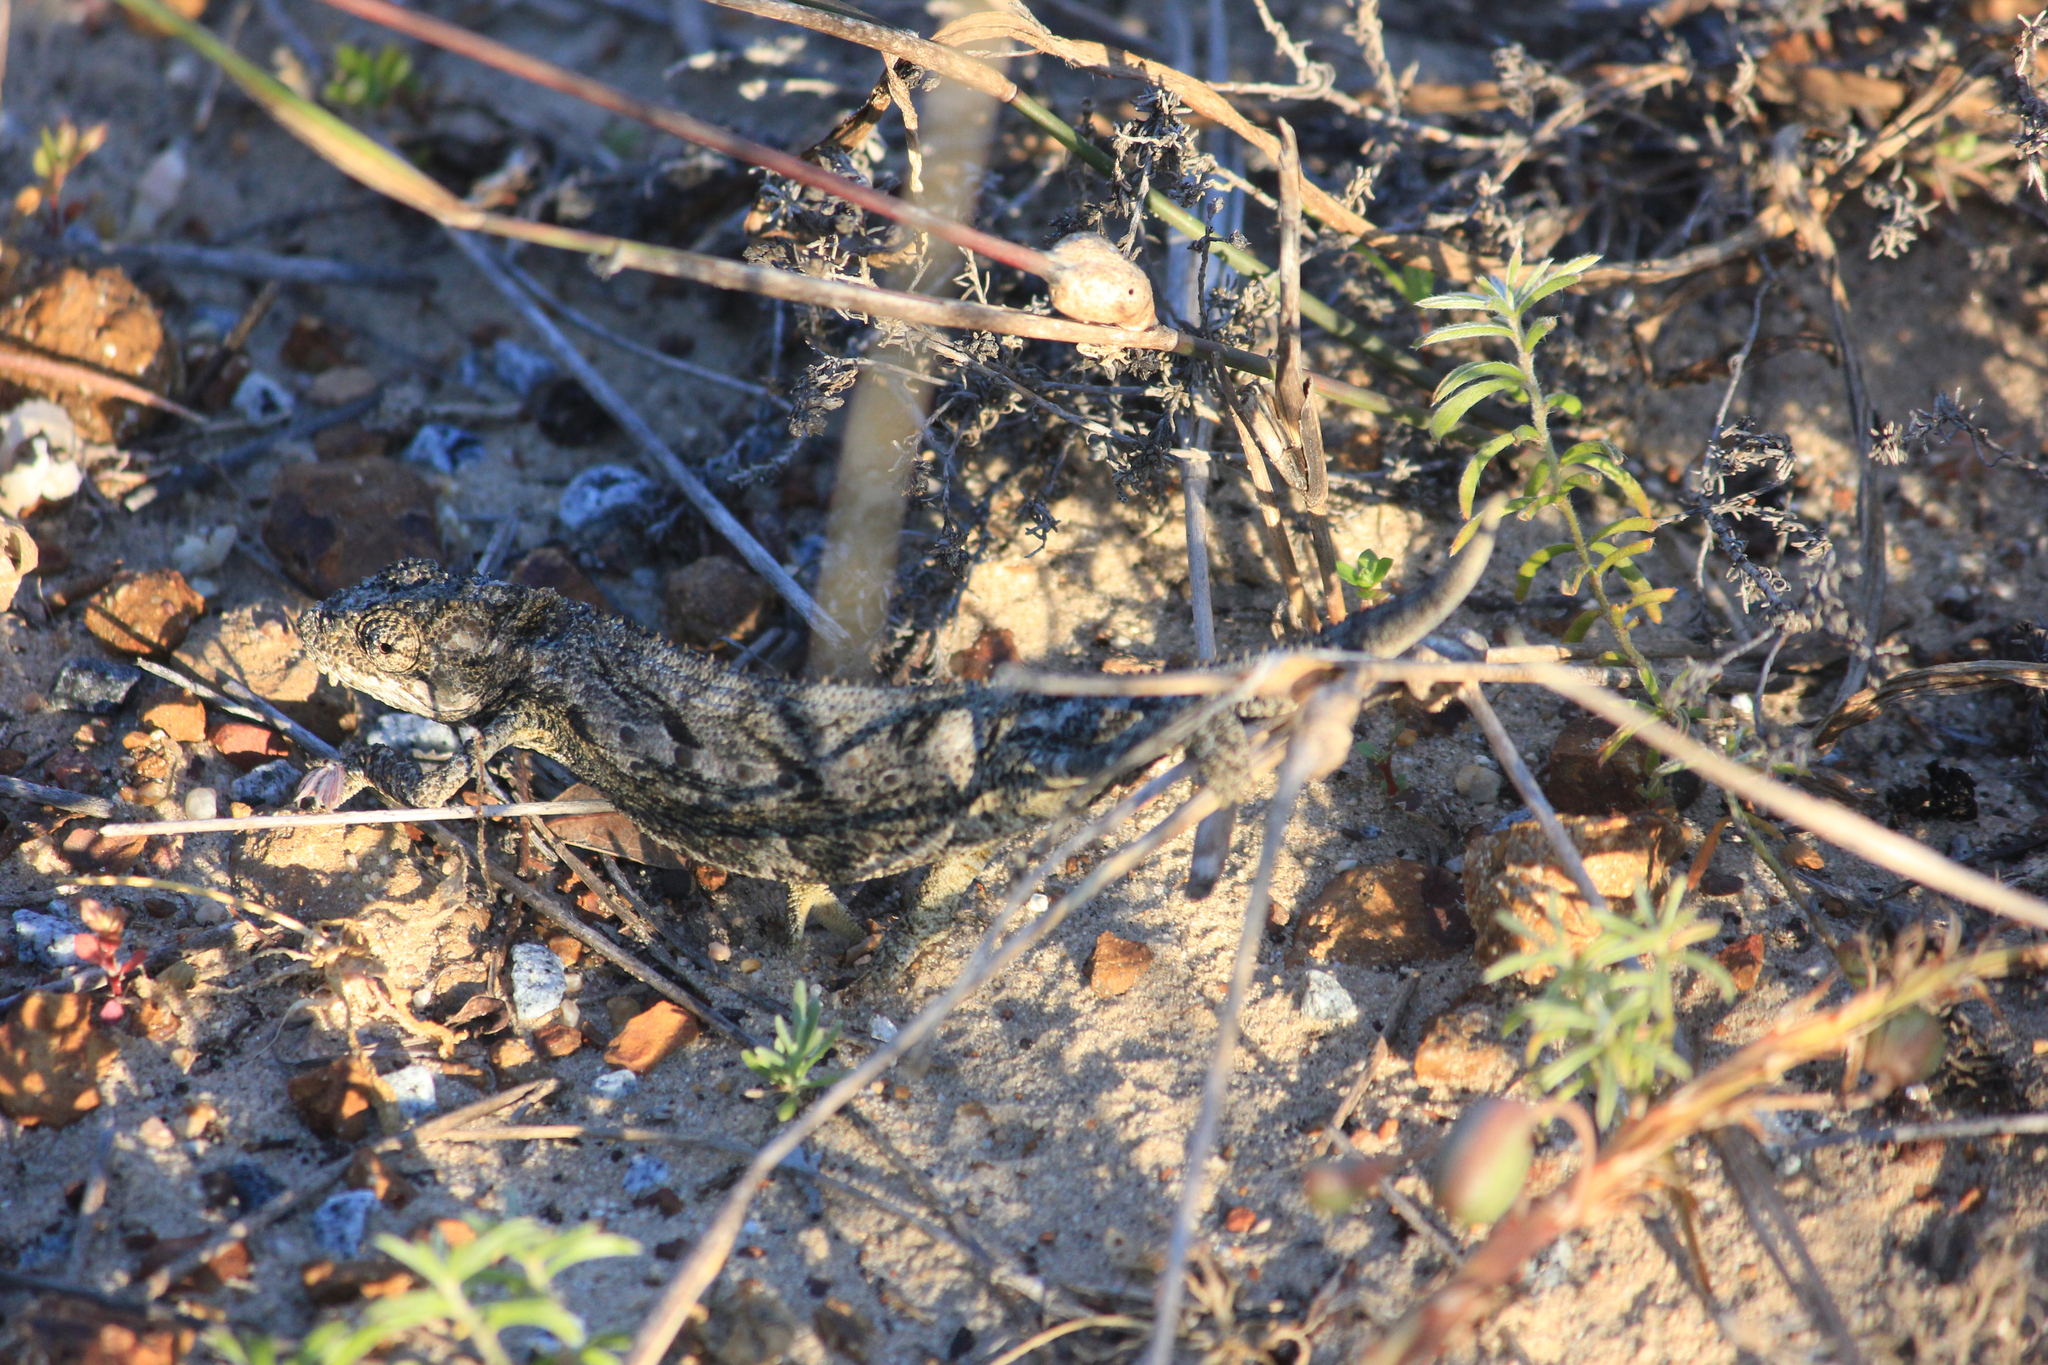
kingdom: Animalia
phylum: Chordata
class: Squamata
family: Chamaeleonidae
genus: Bradypodion
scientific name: Bradypodion occidentale
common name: Western dwarf chameleon
